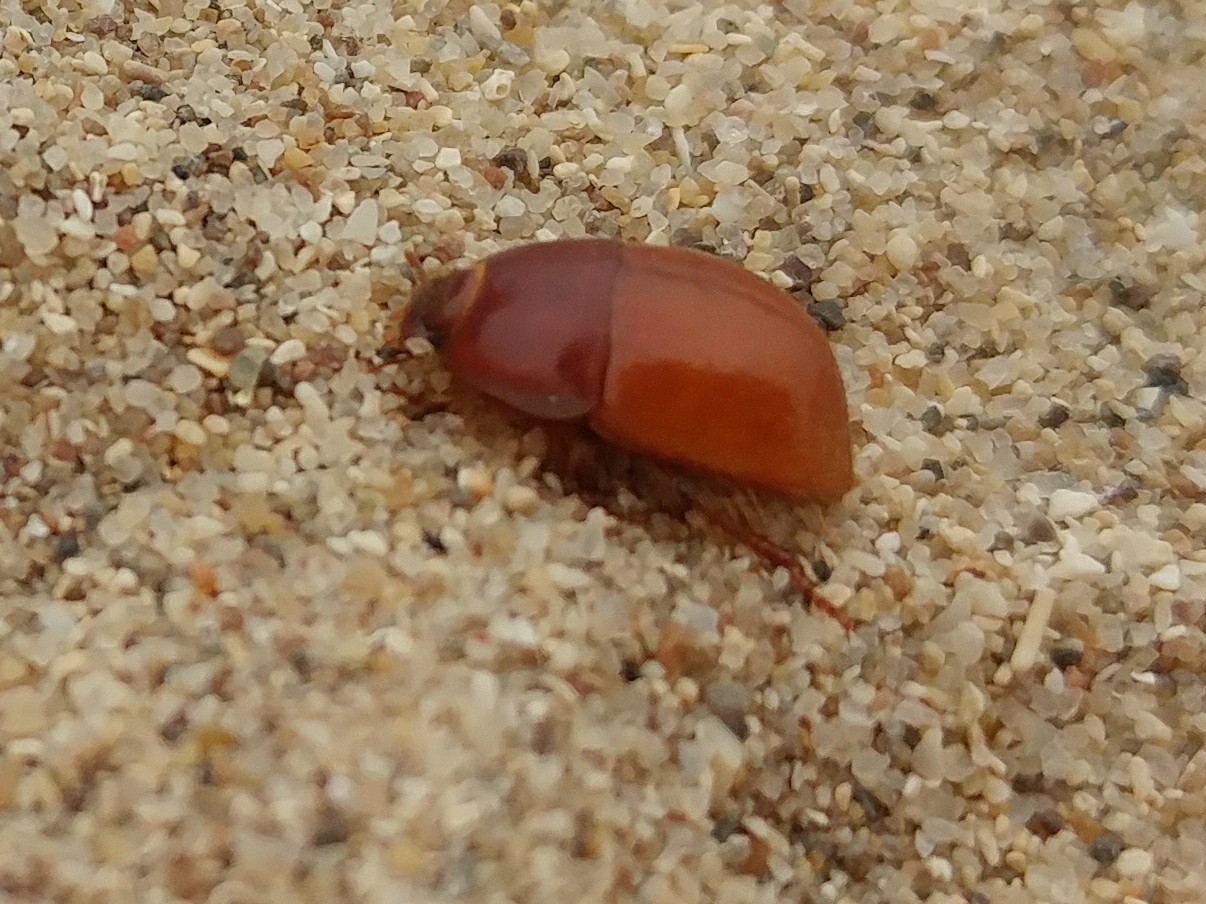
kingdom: Animalia
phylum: Arthropoda
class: Insecta
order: Coleoptera
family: Tenebrionidae
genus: Coelus
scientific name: Coelus pacificus
